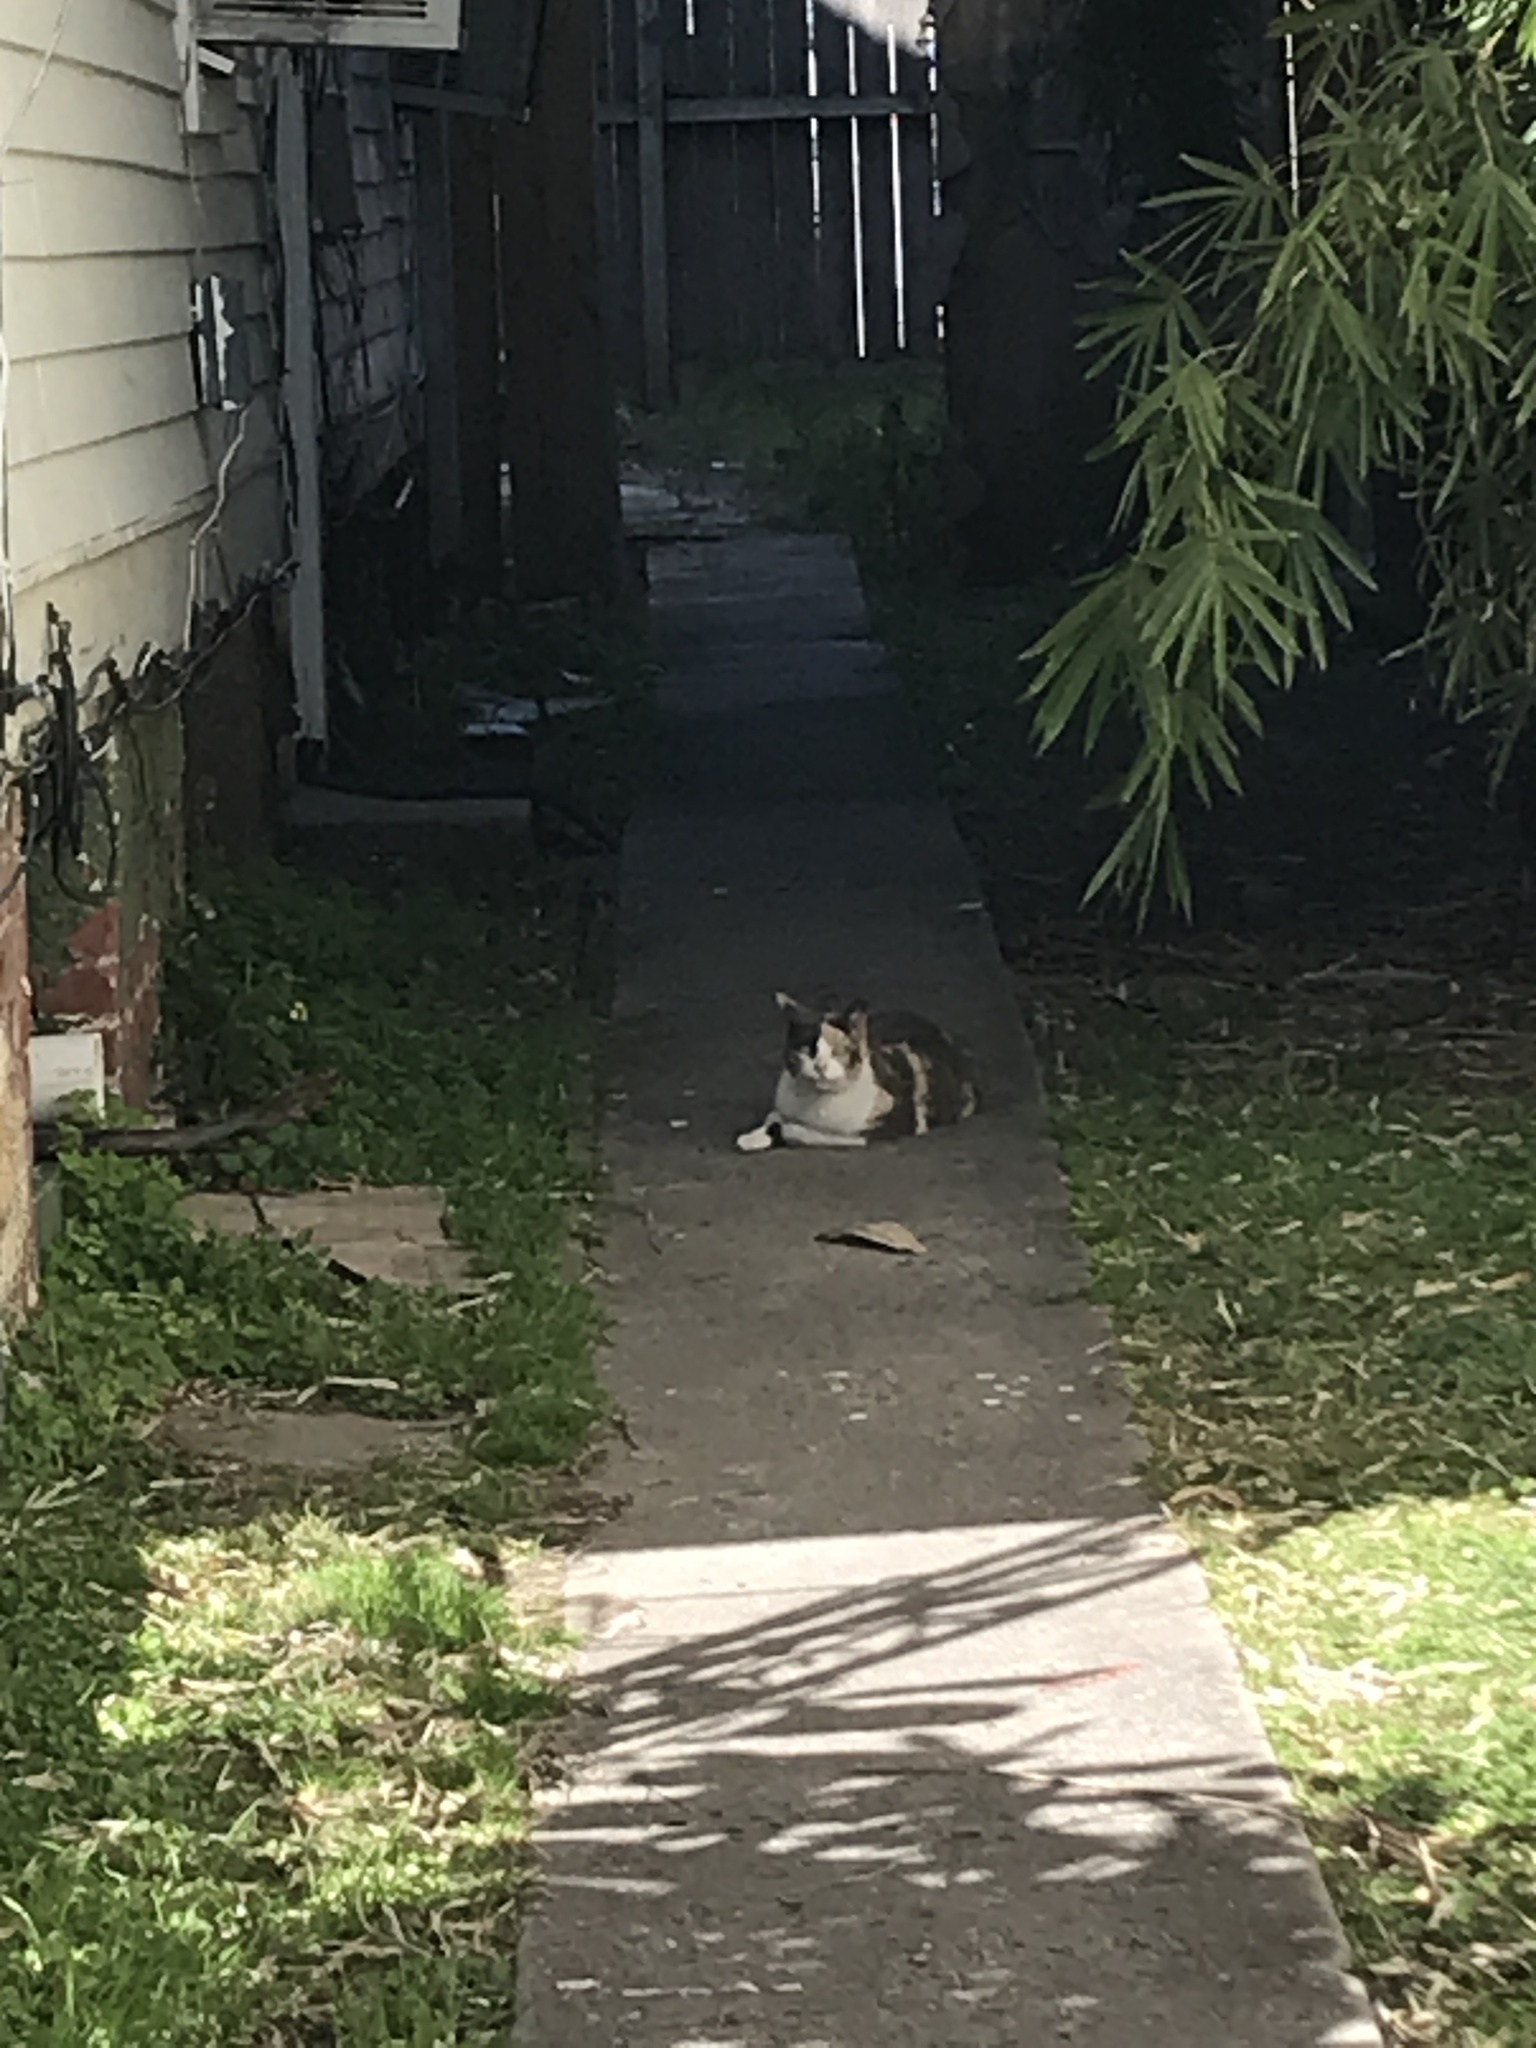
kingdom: Animalia
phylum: Chordata
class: Mammalia
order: Carnivora
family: Felidae
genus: Felis
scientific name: Felis catus
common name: Domestic cat
